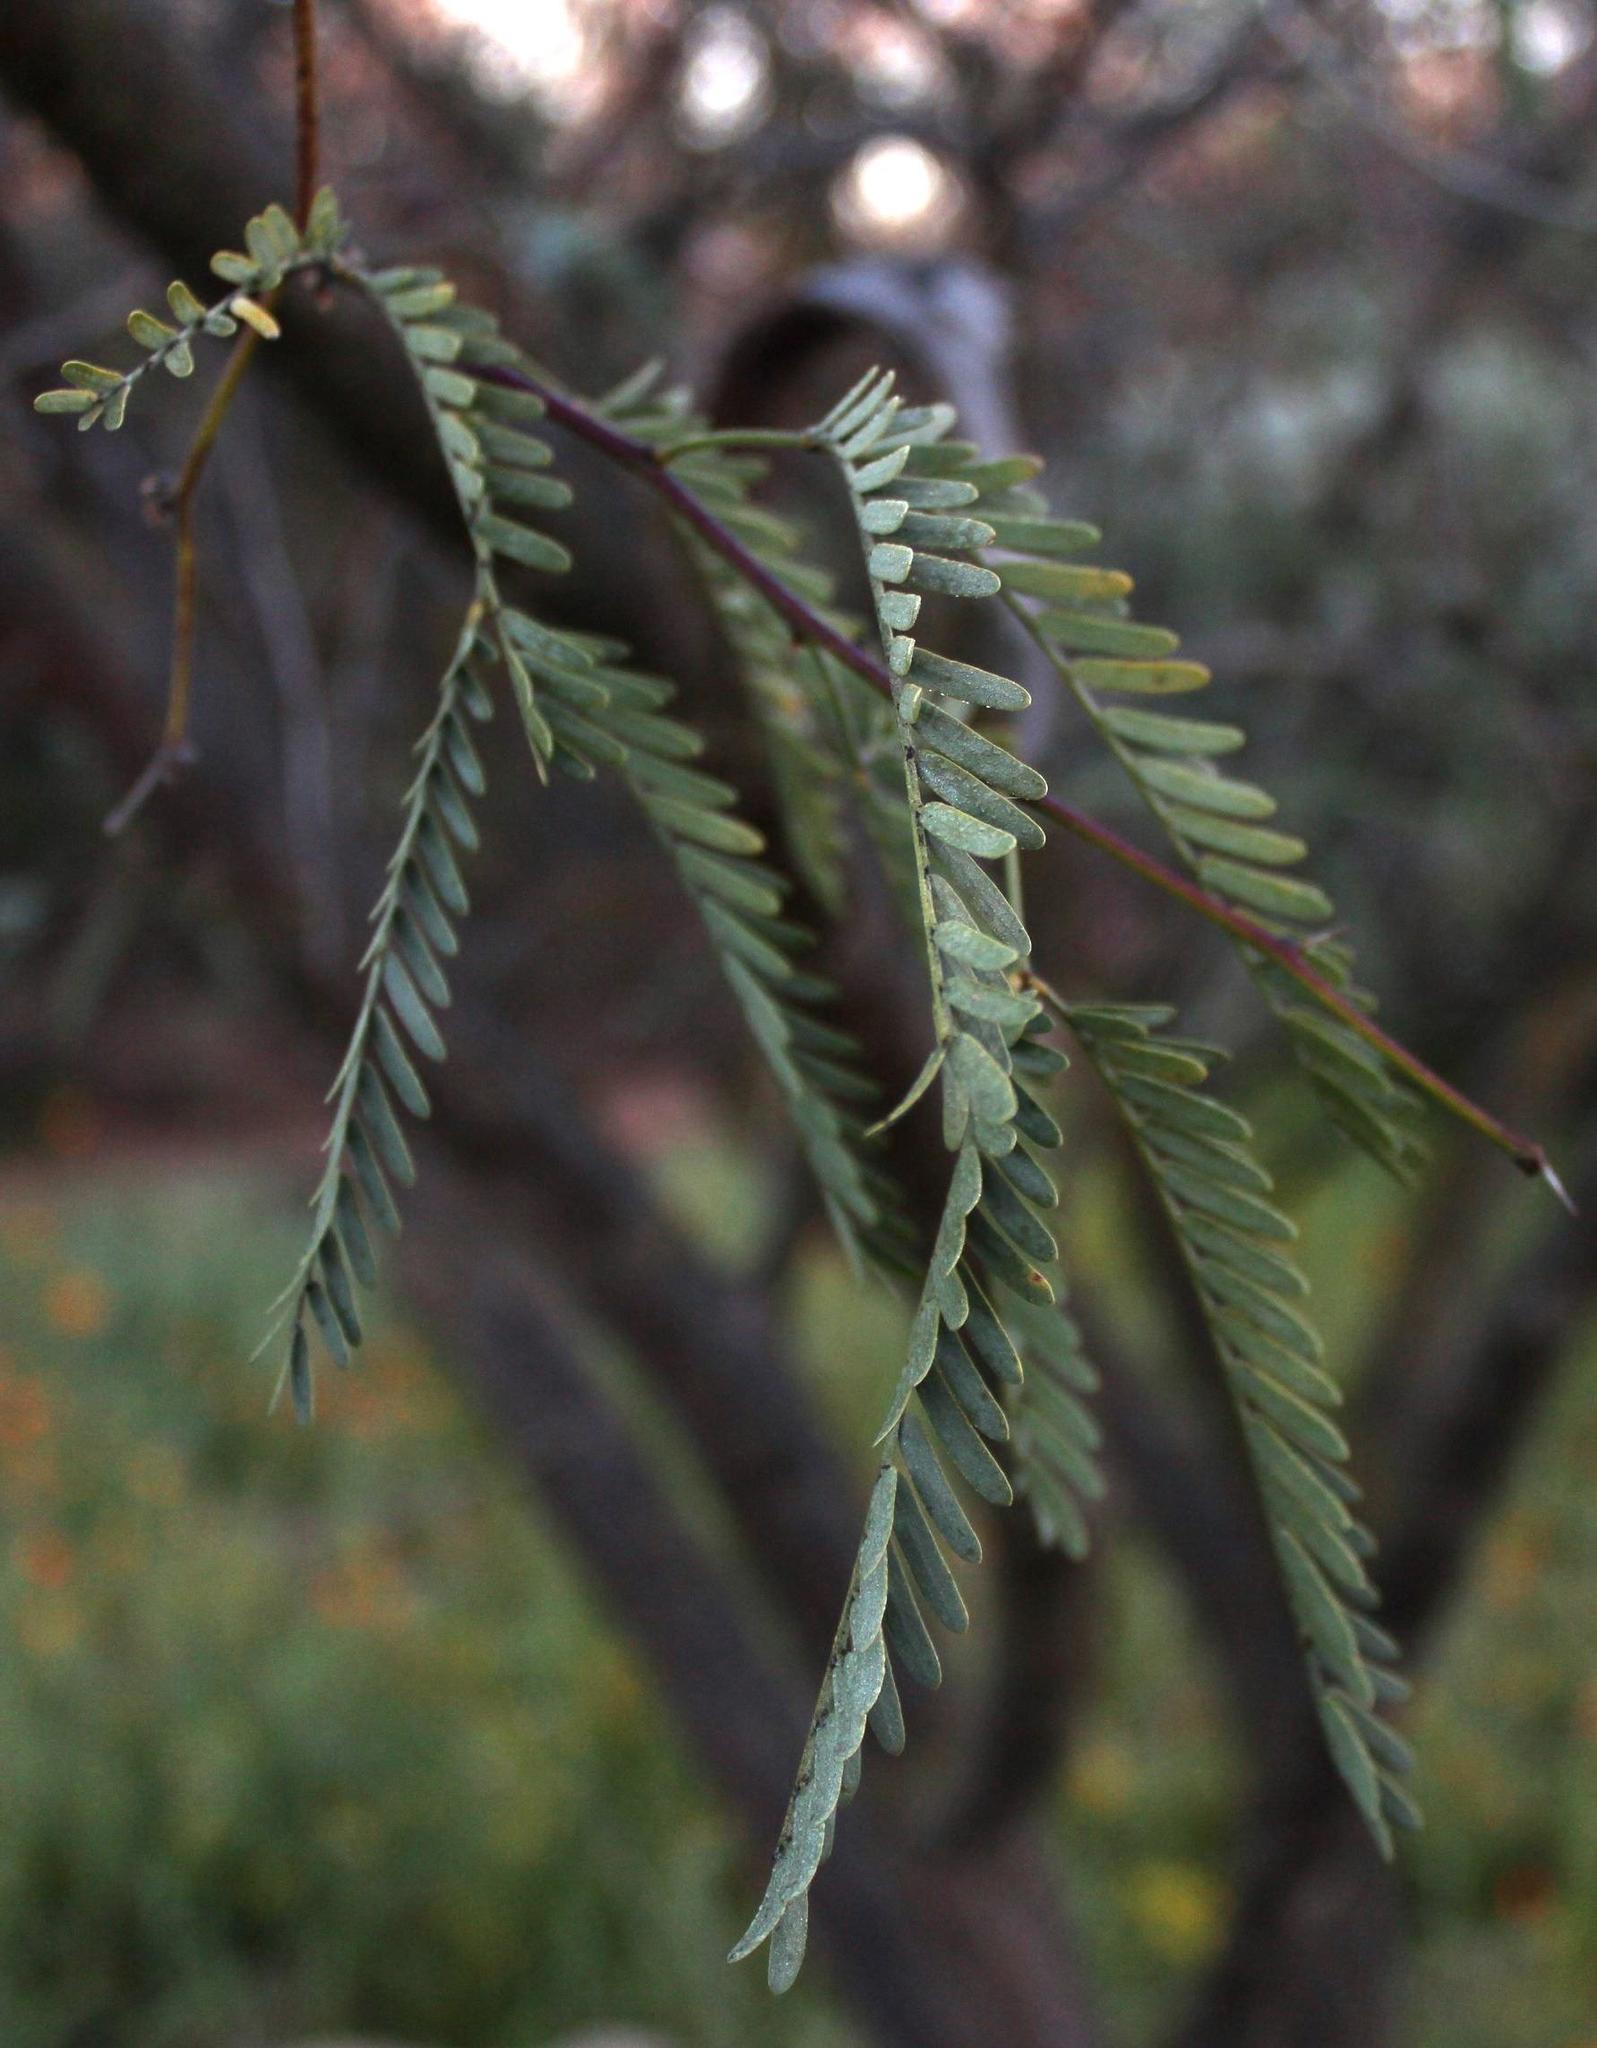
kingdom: Plantae
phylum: Tracheophyta
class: Magnoliopsida
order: Fabales
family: Fabaceae
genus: Prosopis
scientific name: Prosopis velutina
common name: Velvet mesquite
